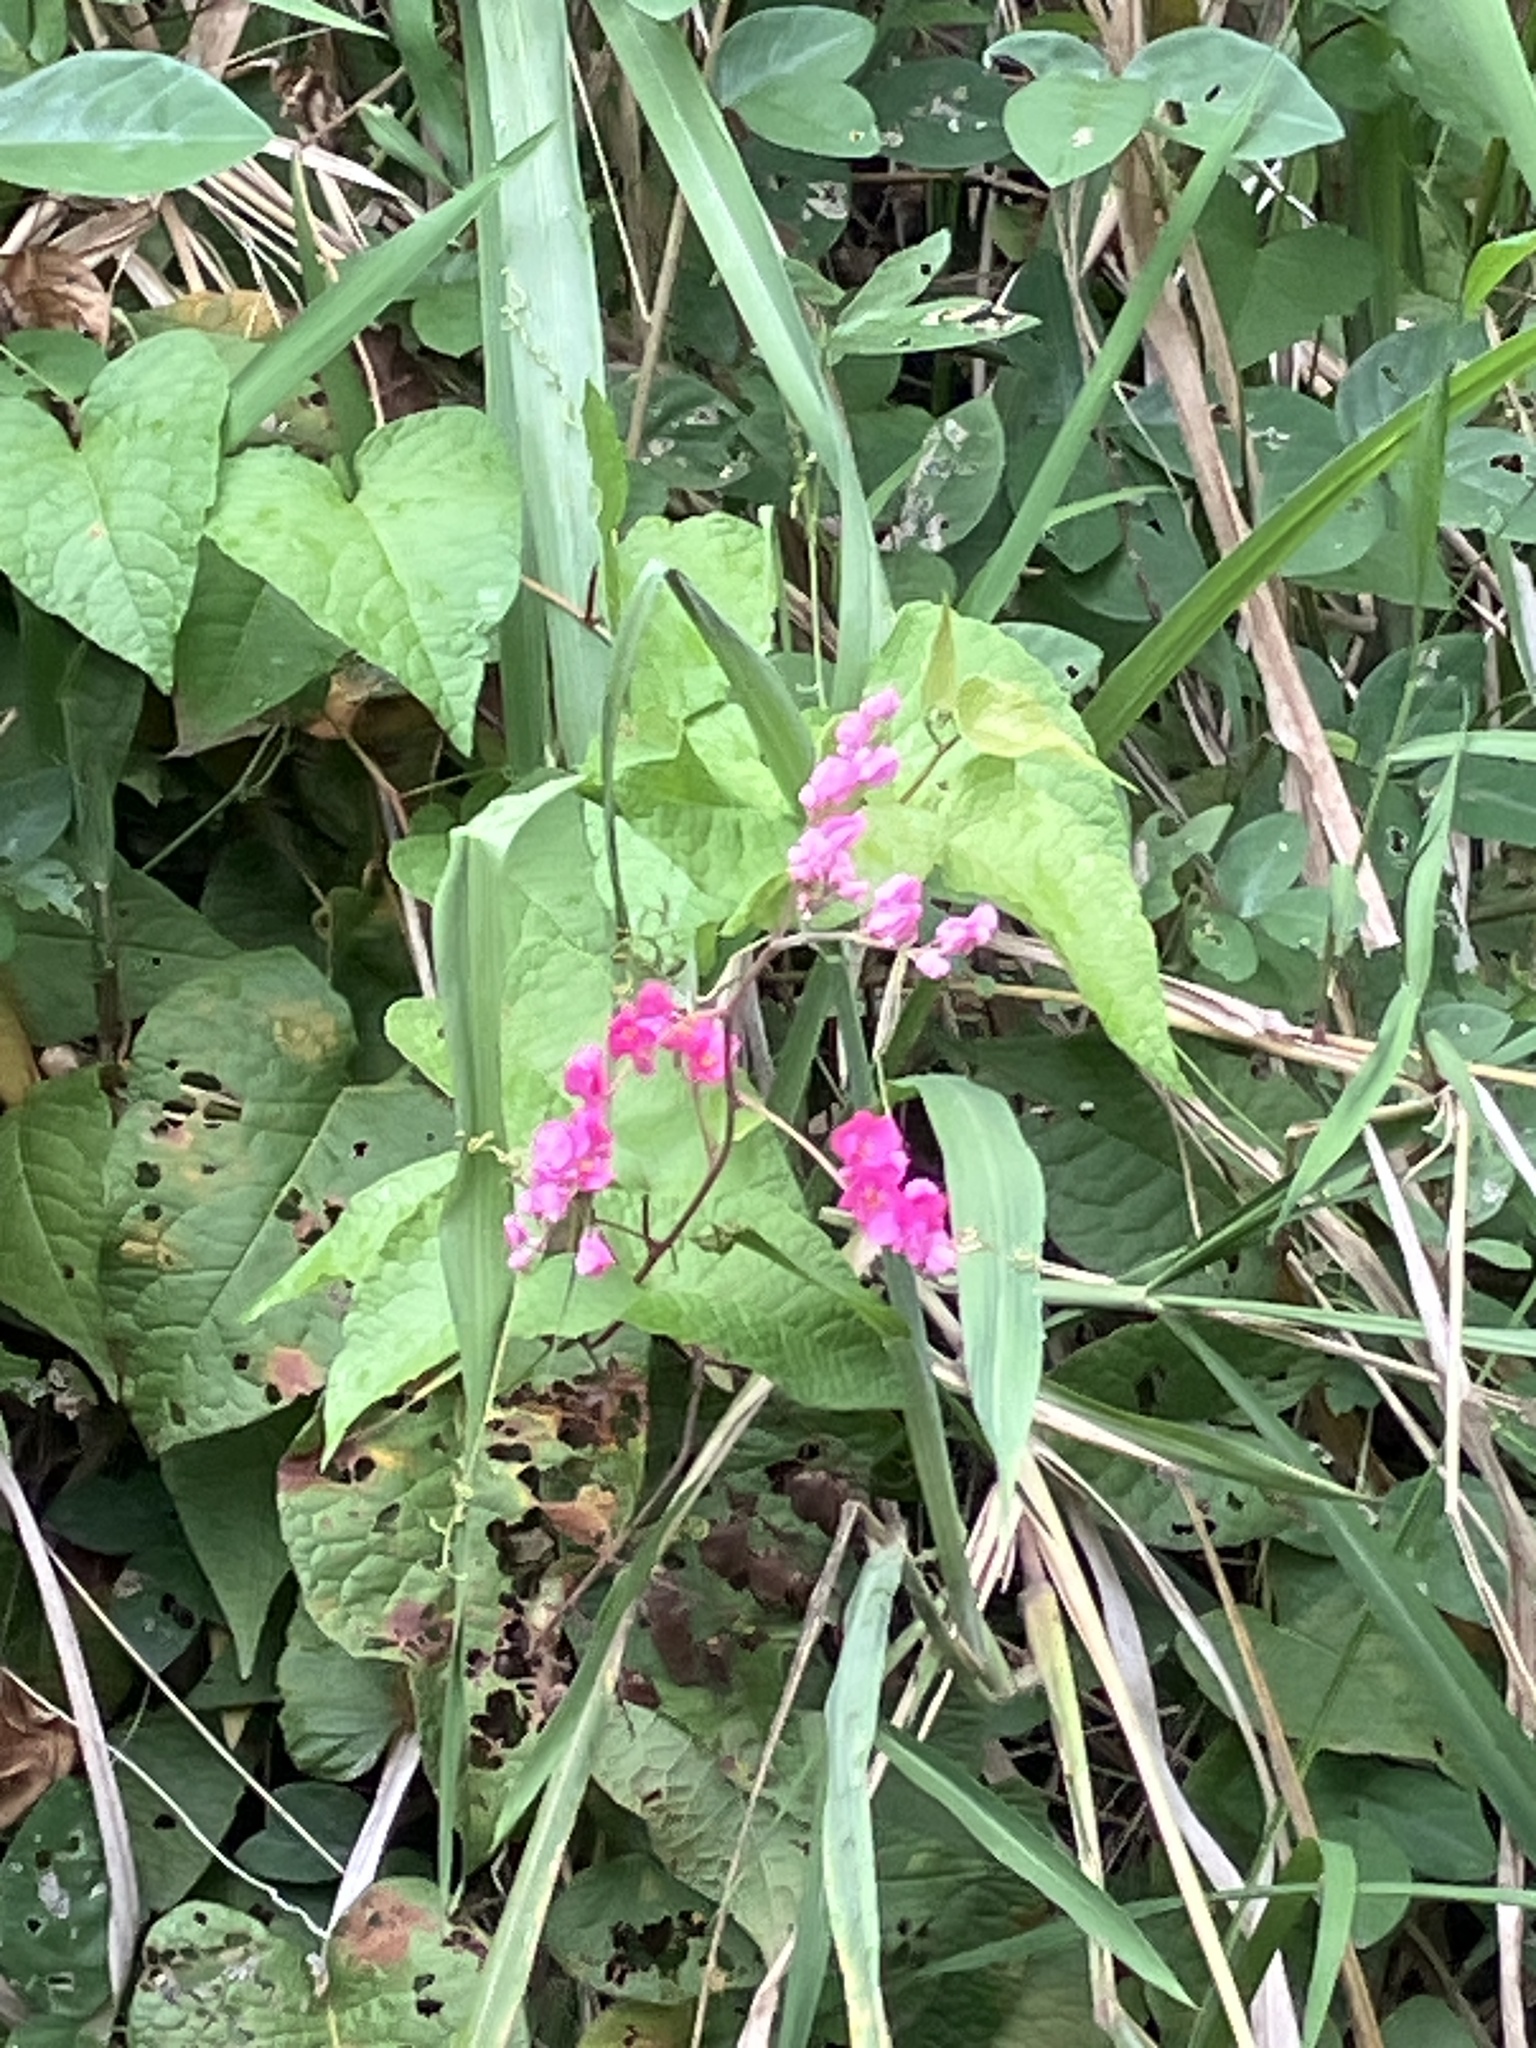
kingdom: Plantae
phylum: Tracheophyta
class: Magnoliopsida
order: Caryophyllales
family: Polygonaceae
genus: Antigonon
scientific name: Antigonon leptopus
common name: Coral vine
